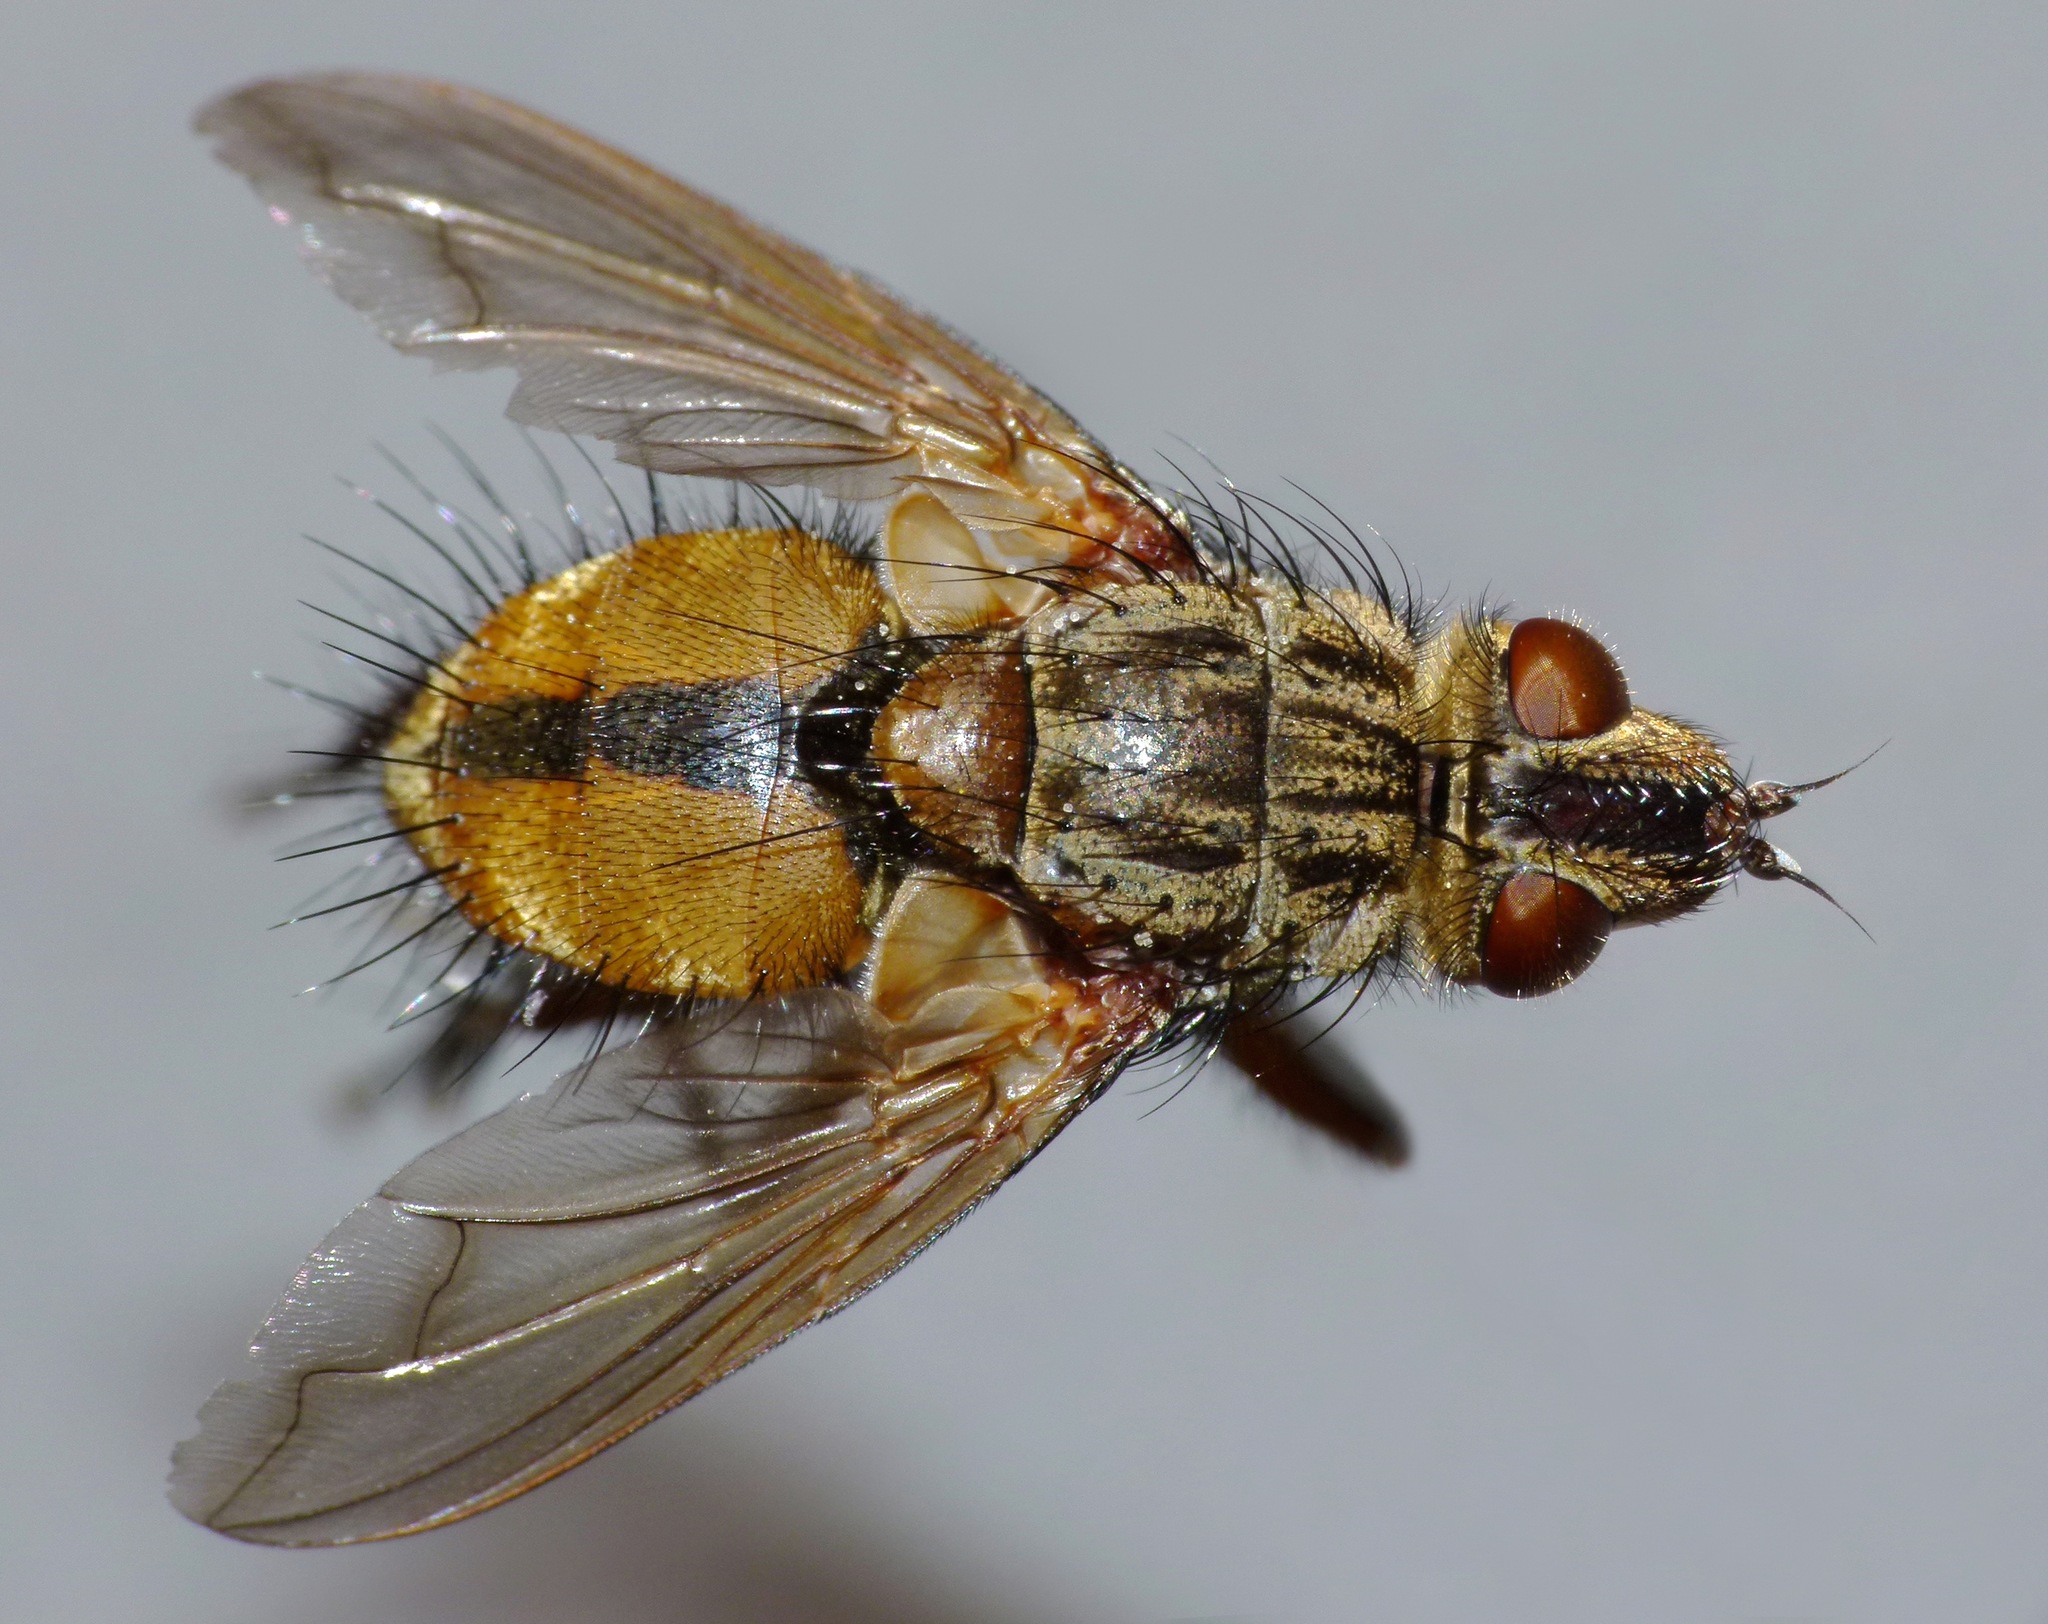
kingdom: Animalia
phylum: Arthropoda
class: Insecta
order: Diptera
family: Tachinidae
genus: Peremptor
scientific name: Peremptor kumaraensis
